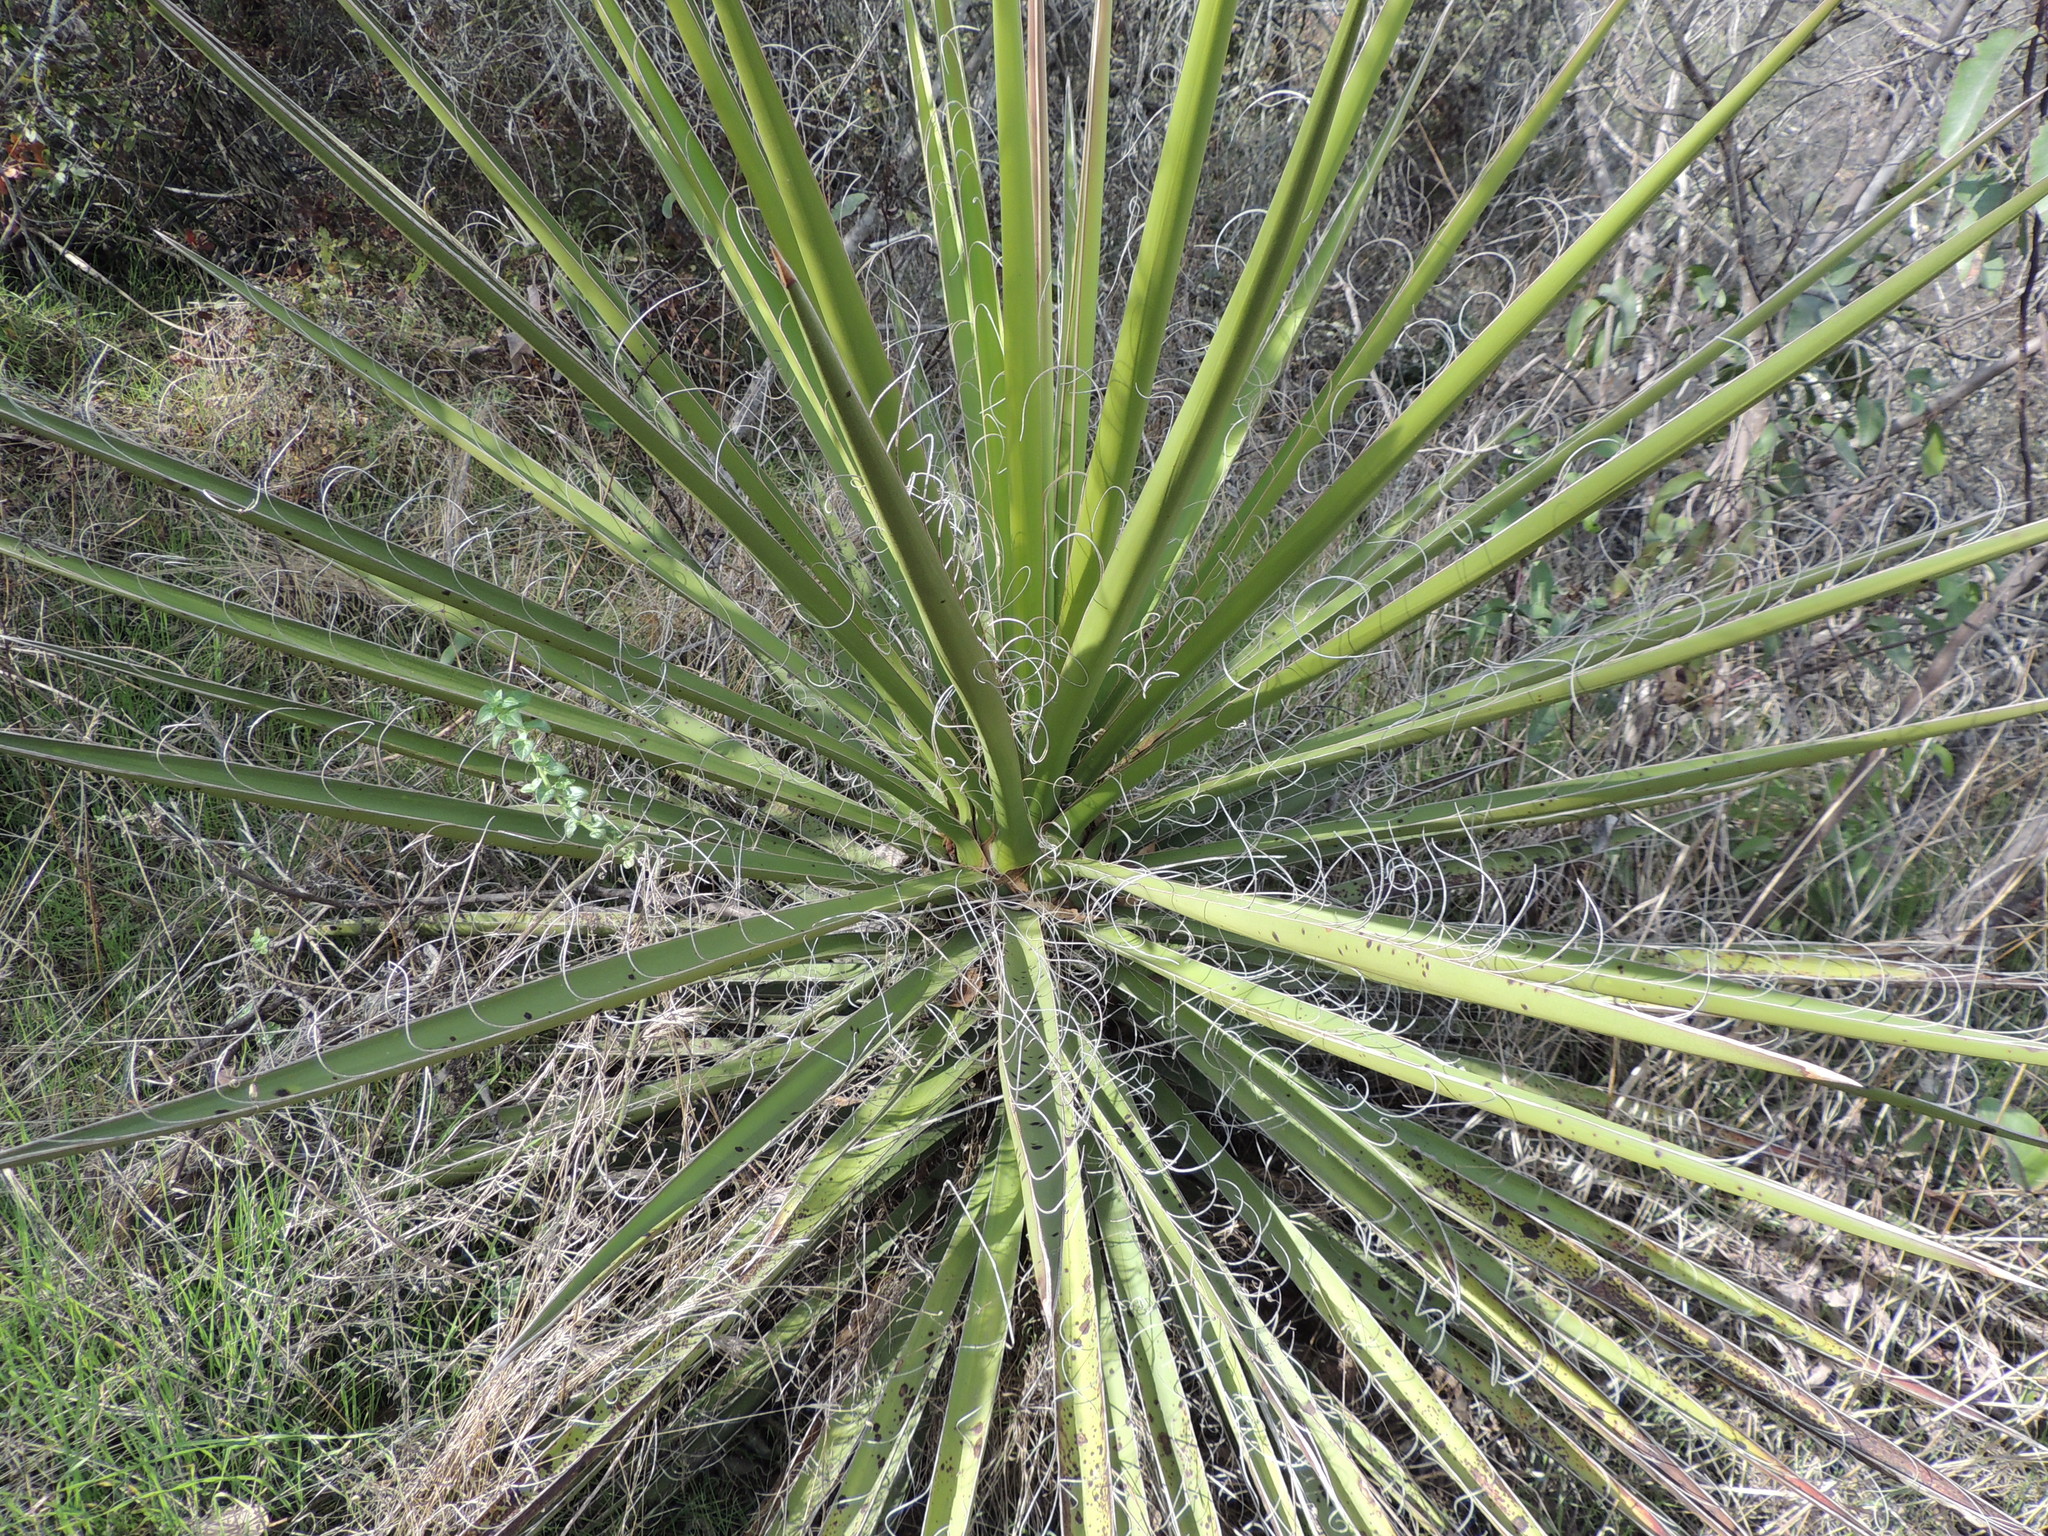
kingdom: Plantae
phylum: Tracheophyta
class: Liliopsida
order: Asparagales
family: Asparagaceae
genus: Yucca
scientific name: Yucca schidigera
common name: Mojave yucca
